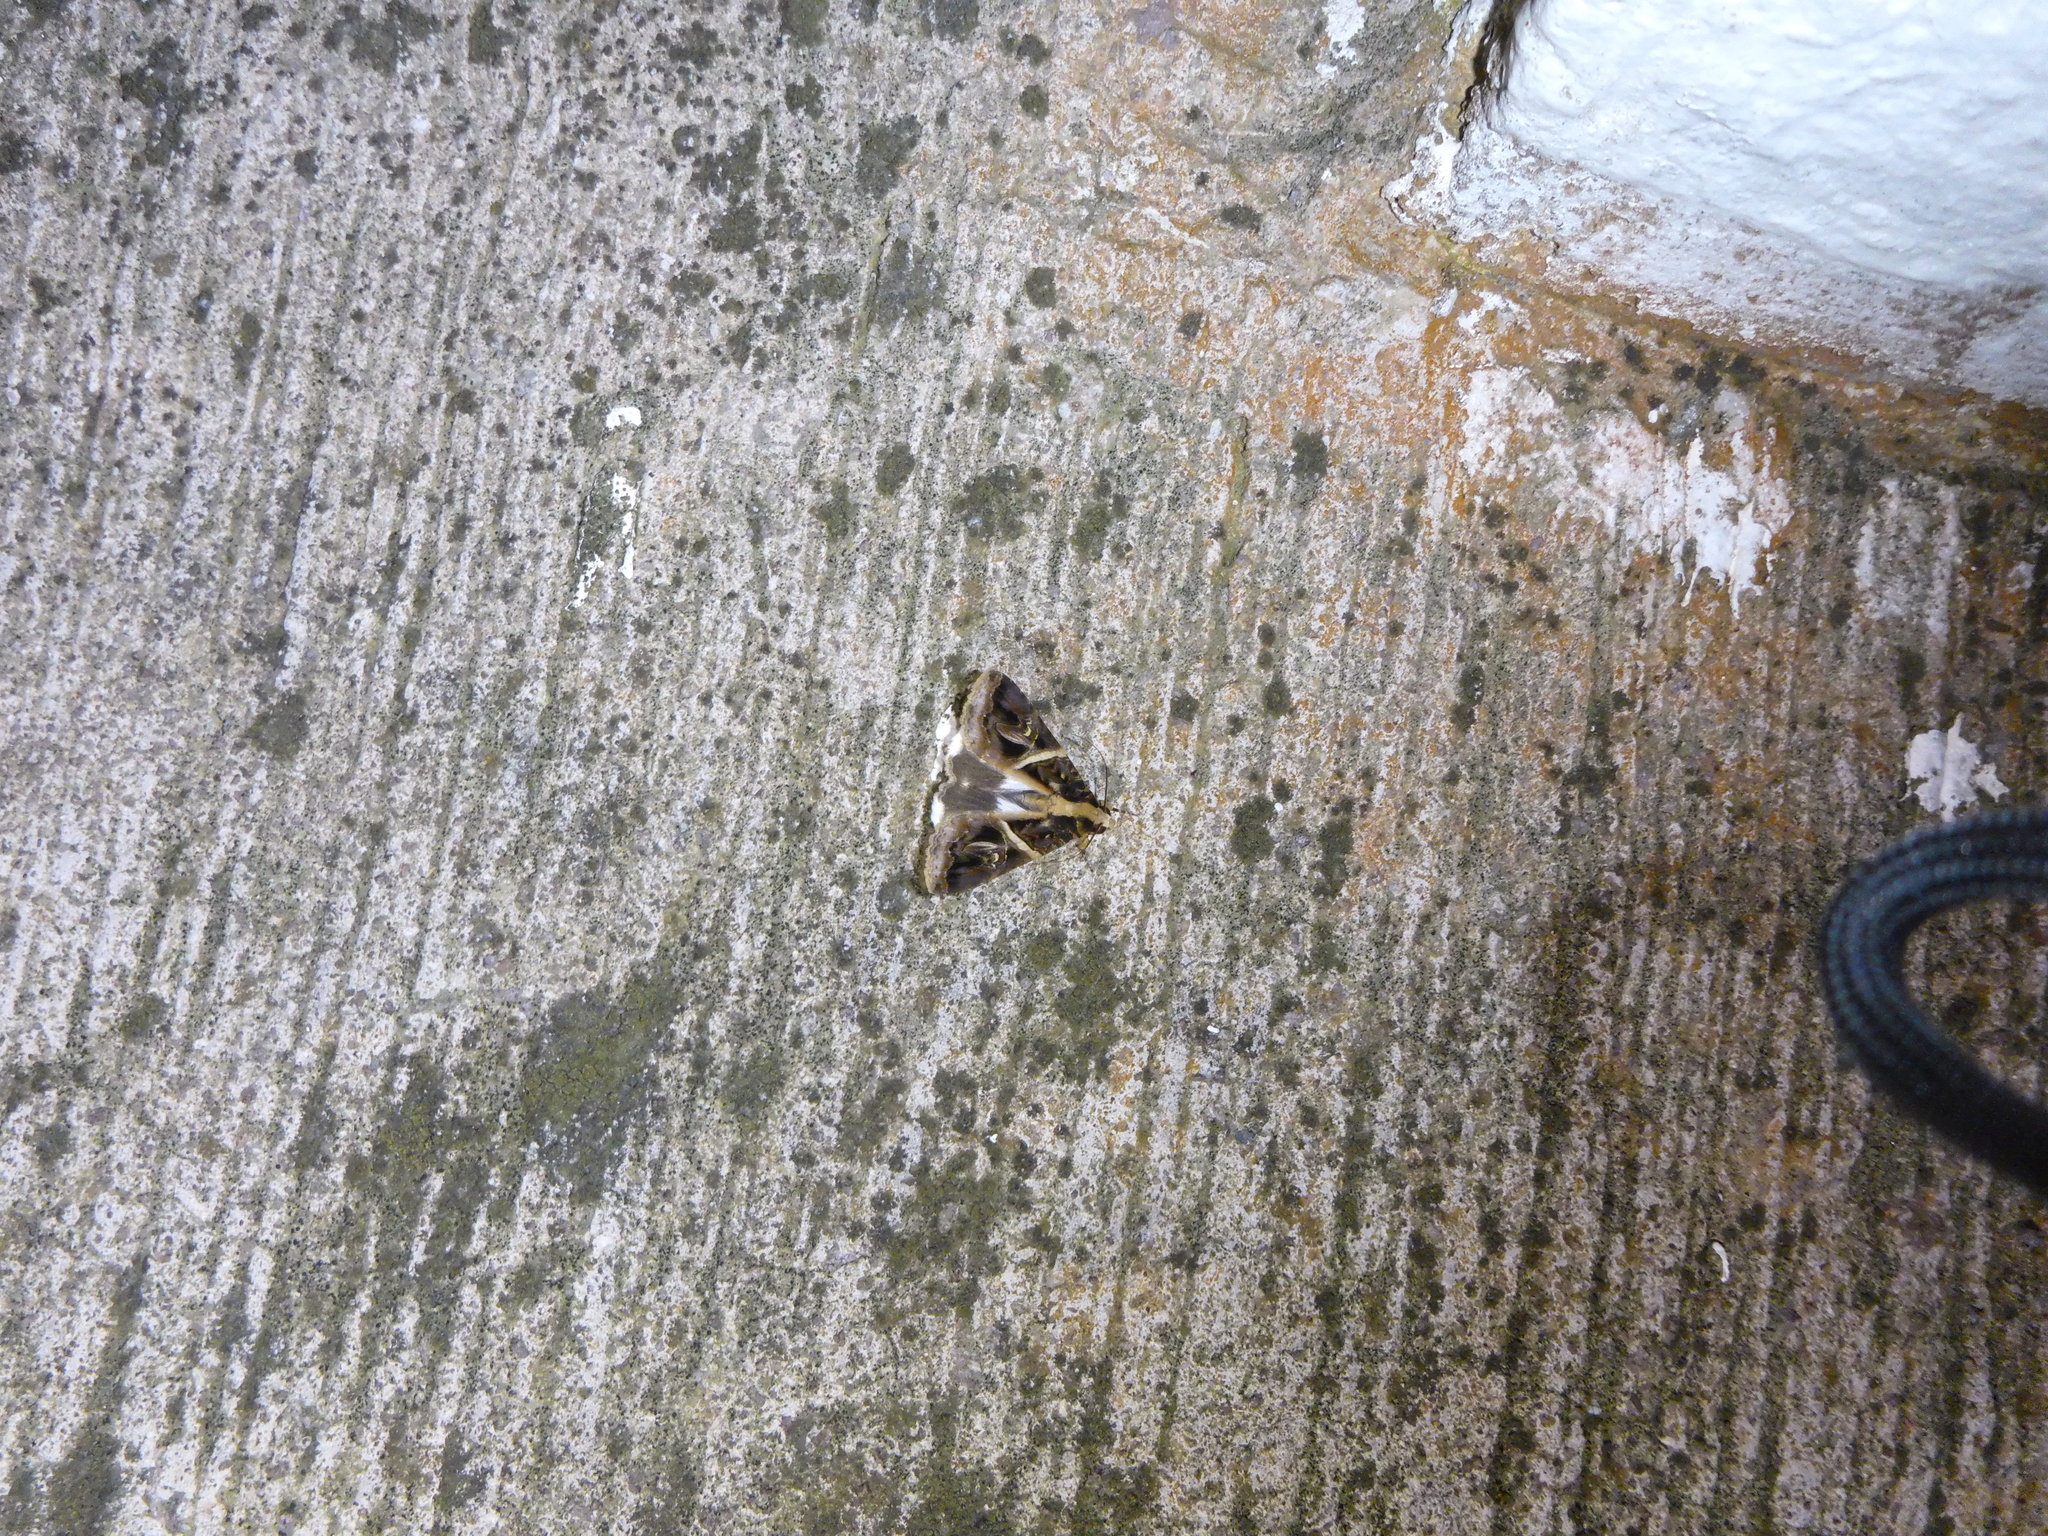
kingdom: Animalia
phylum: Arthropoda
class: Insecta
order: Lepidoptera
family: Erebidae
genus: Melipotis
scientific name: Melipotis contorta
